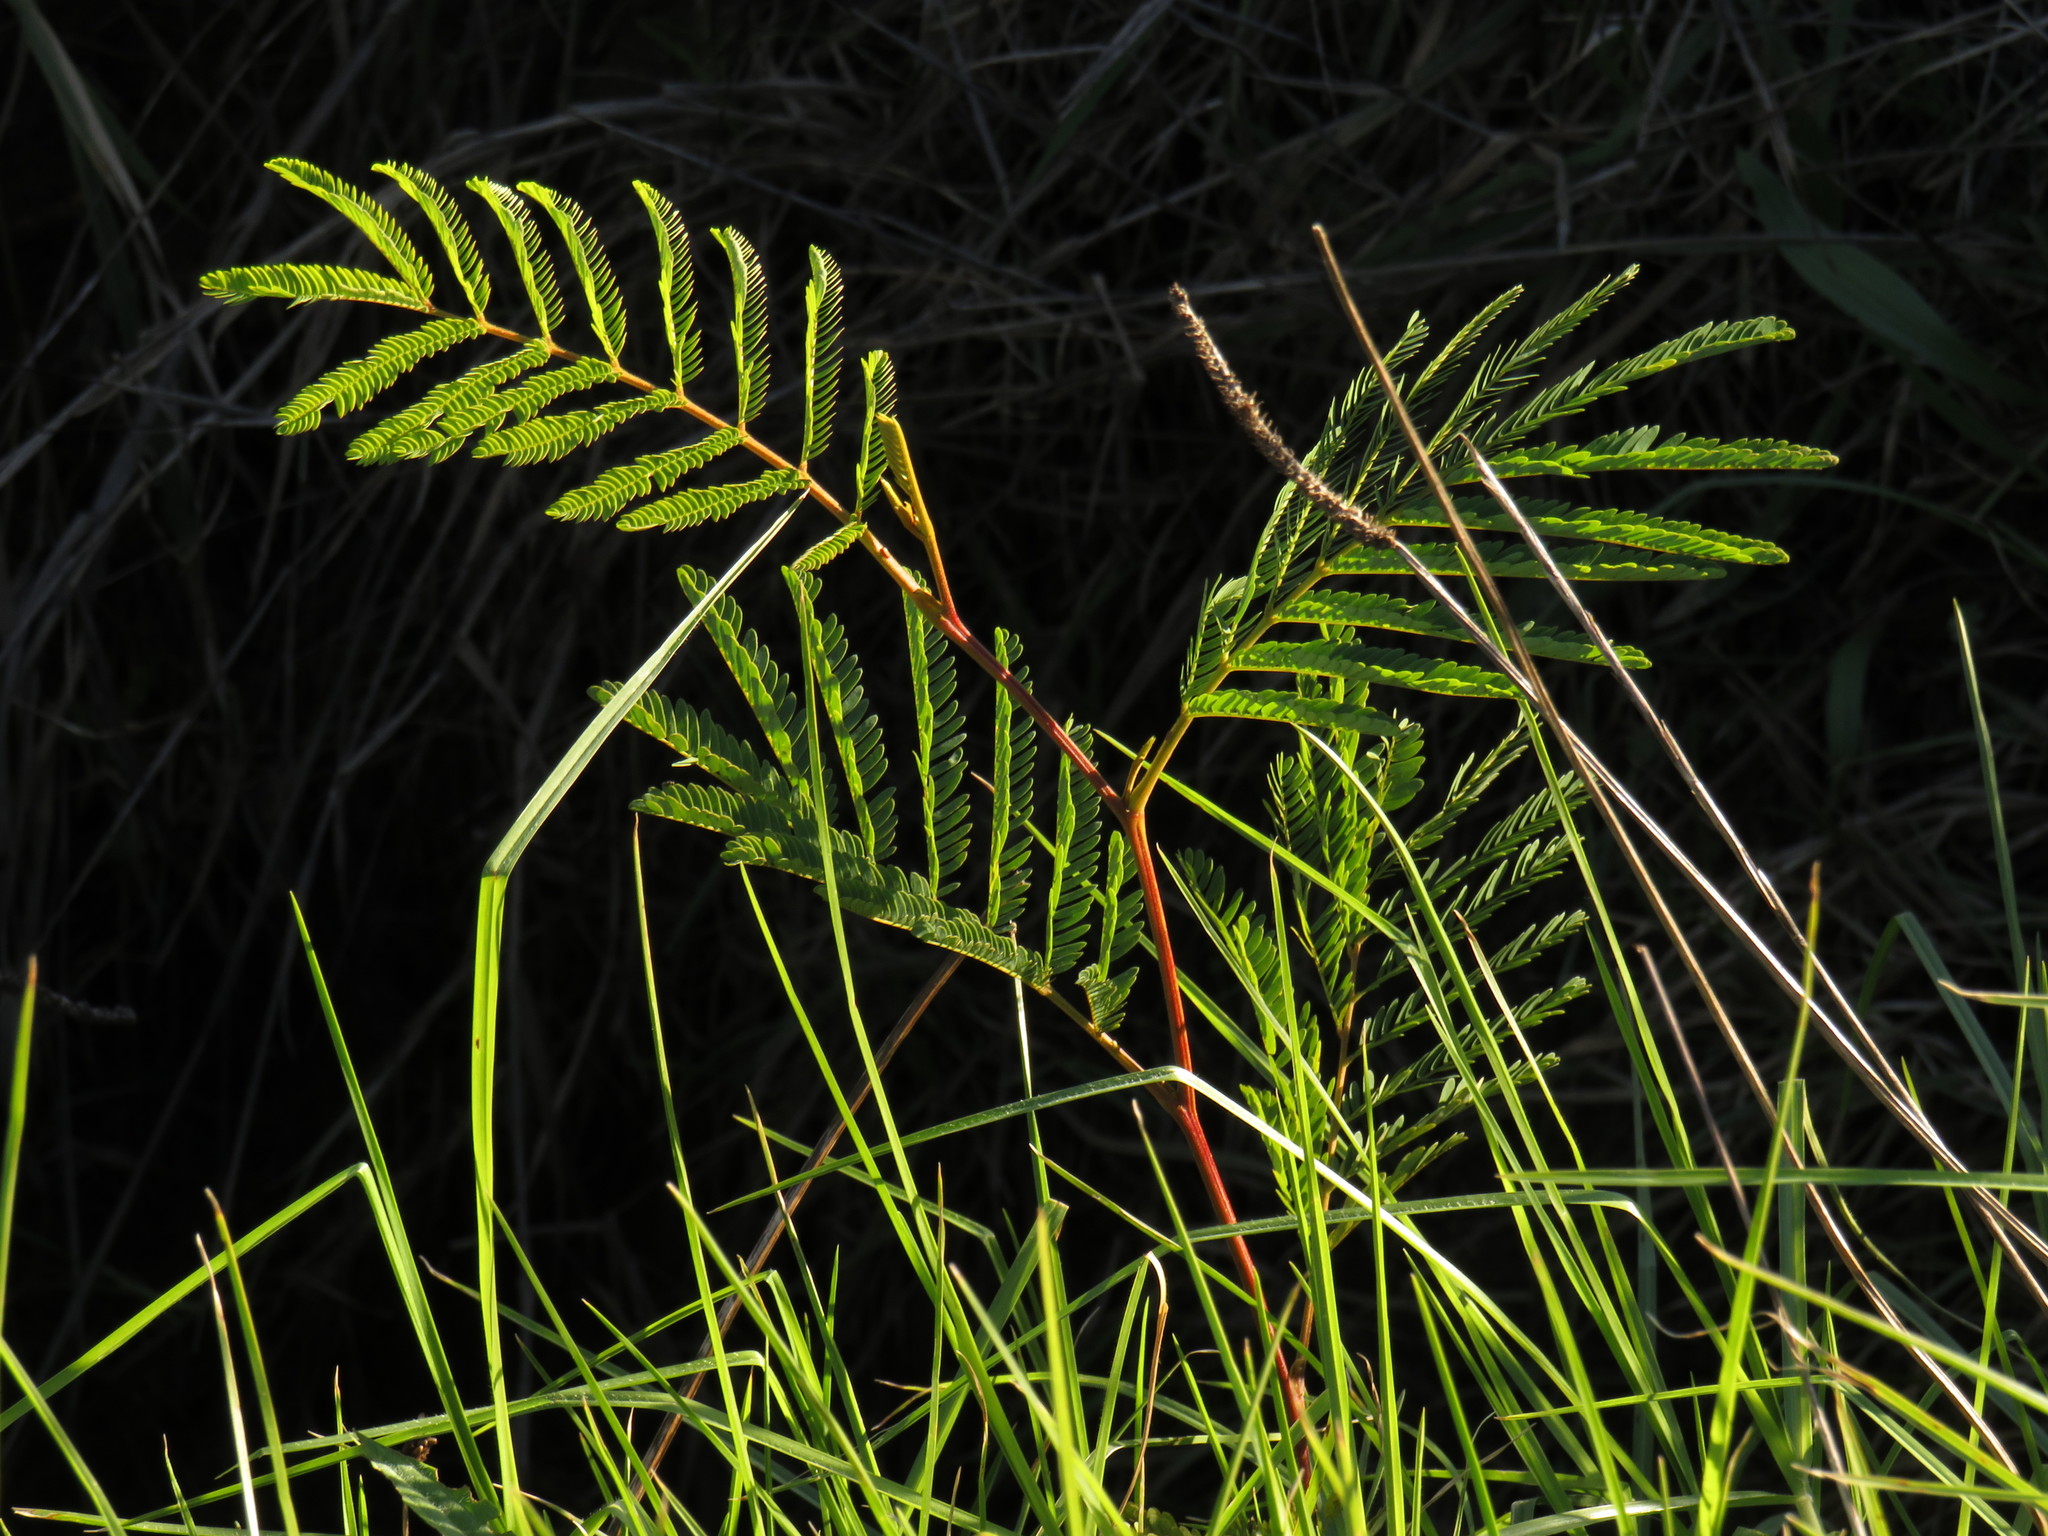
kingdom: Plantae
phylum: Tracheophyta
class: Magnoliopsida
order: Fabales
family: Fabaceae
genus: Paraserianthes
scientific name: Paraserianthes lophantha
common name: Plume albizia
